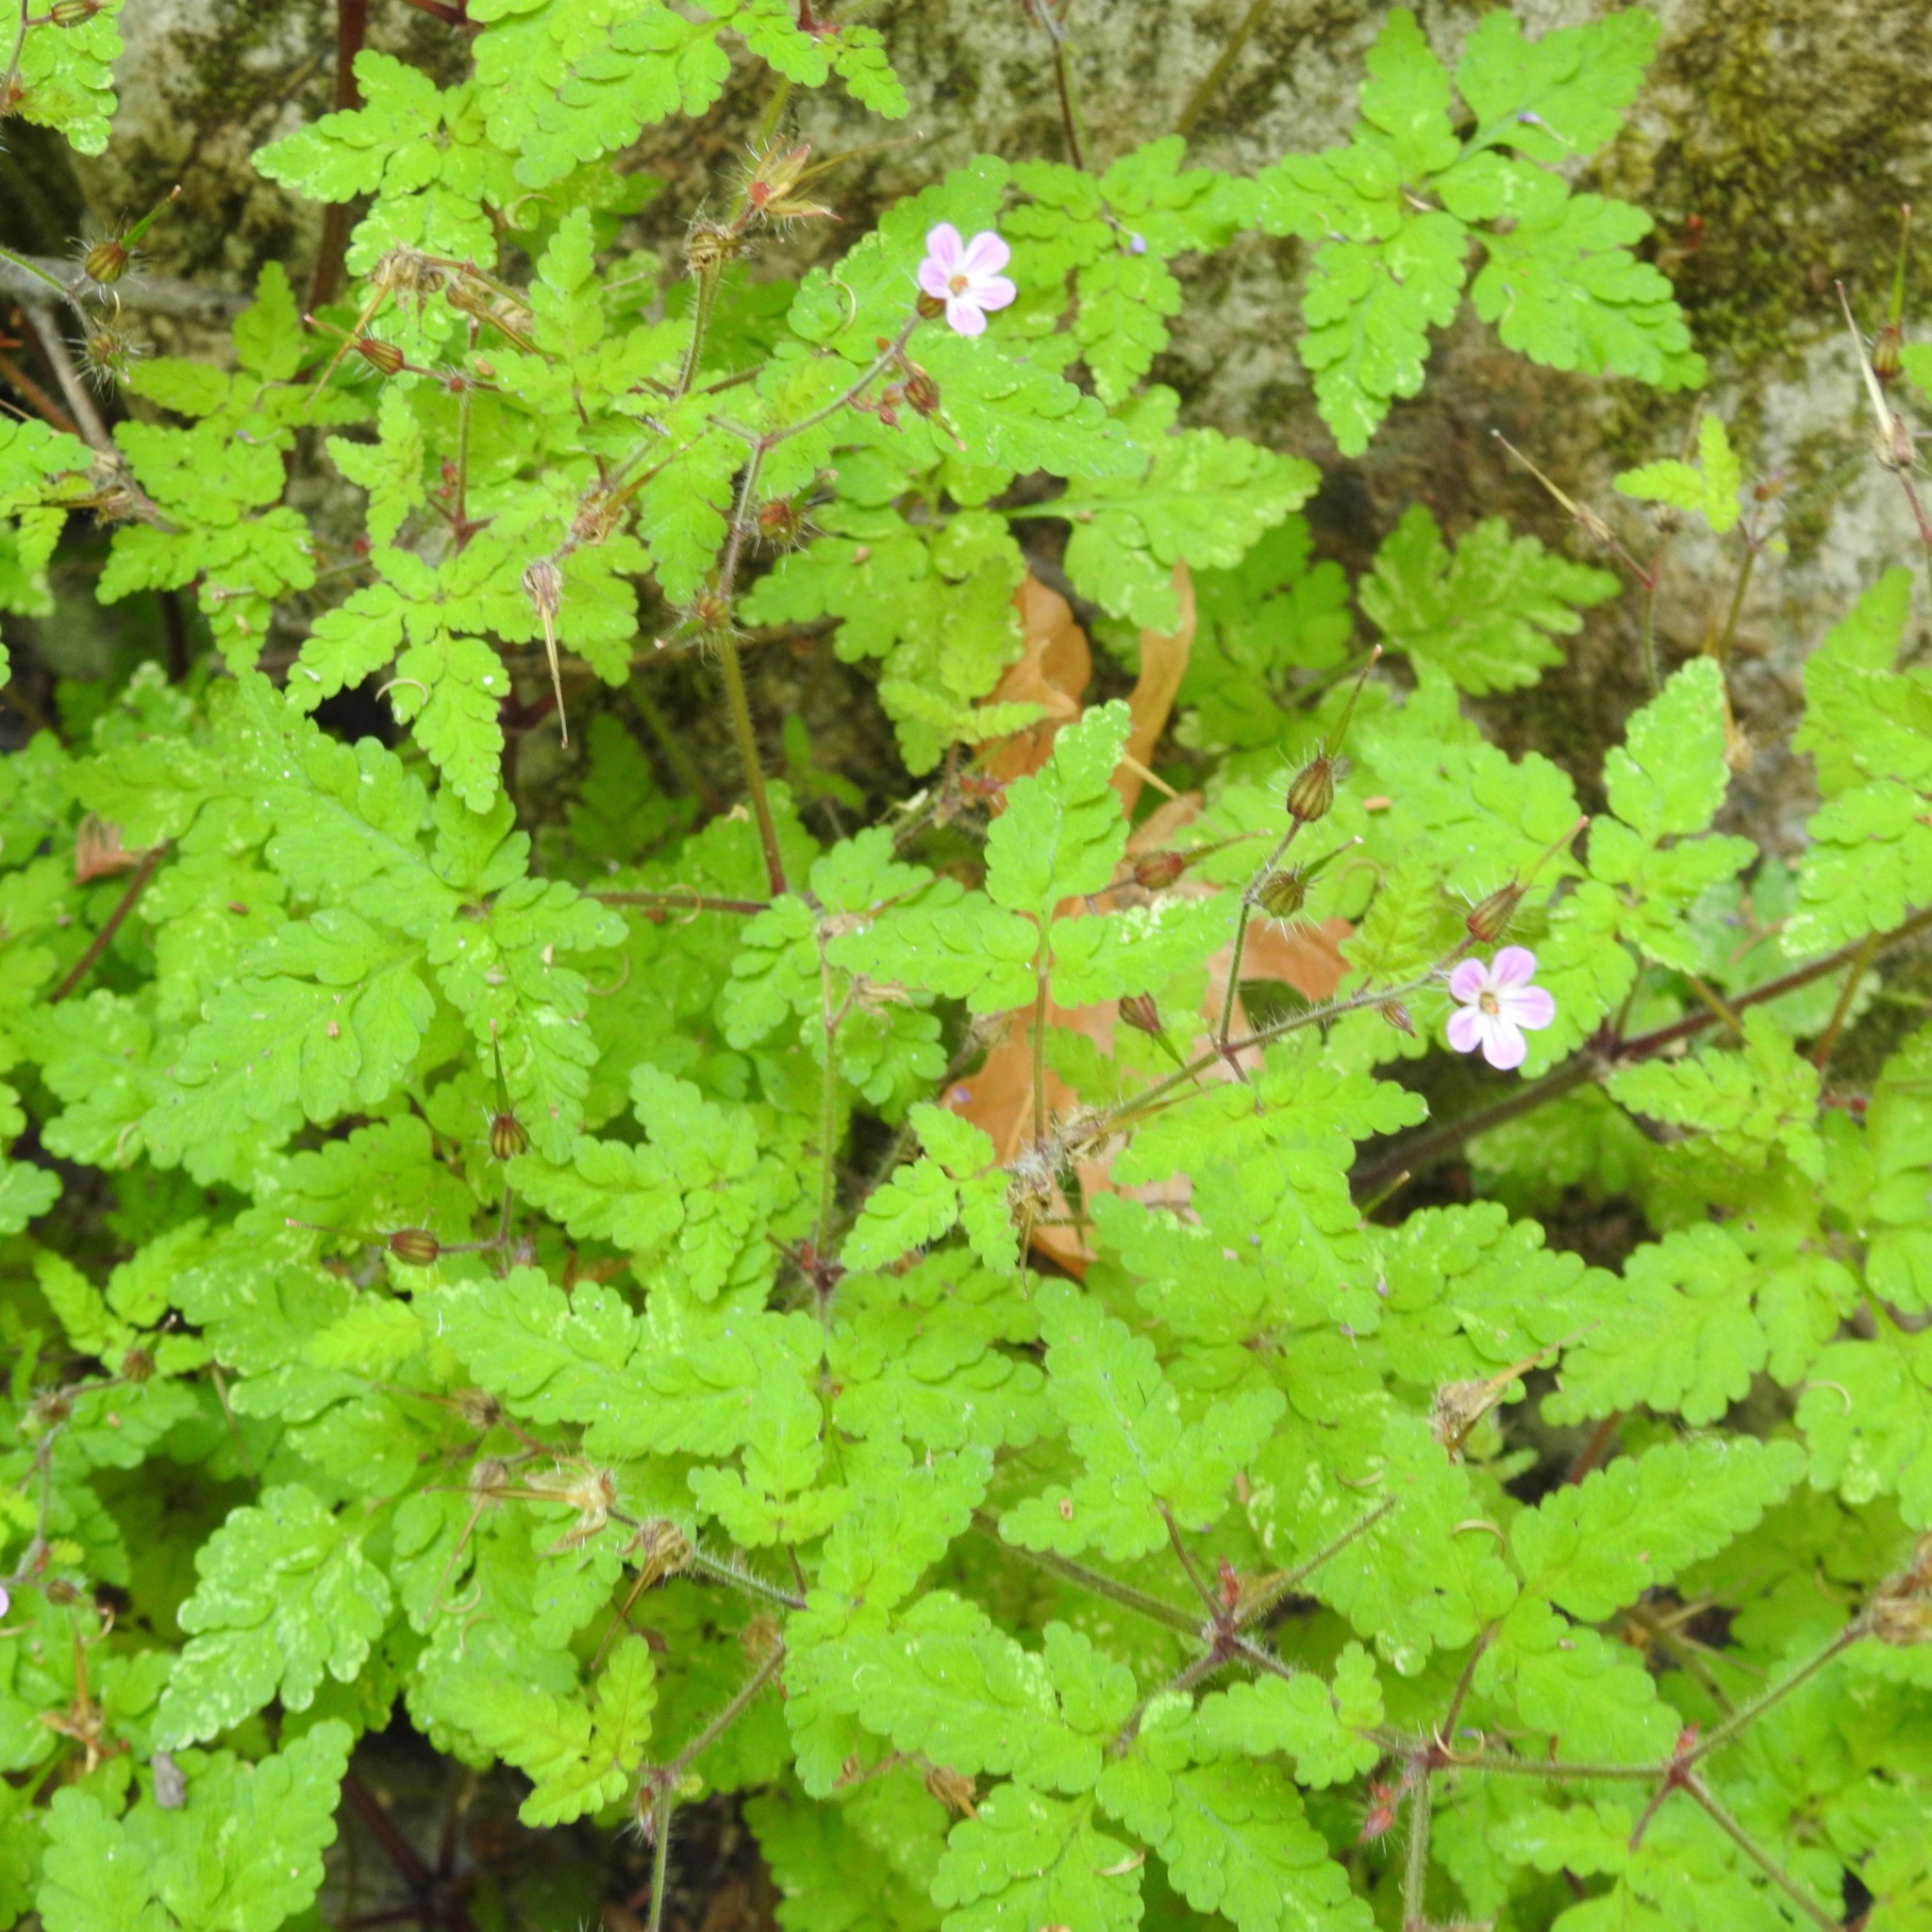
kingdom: Plantae
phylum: Tracheophyta
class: Magnoliopsida
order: Geraniales
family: Geraniaceae
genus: Geranium
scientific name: Geranium robertianum
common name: Herb-robert
